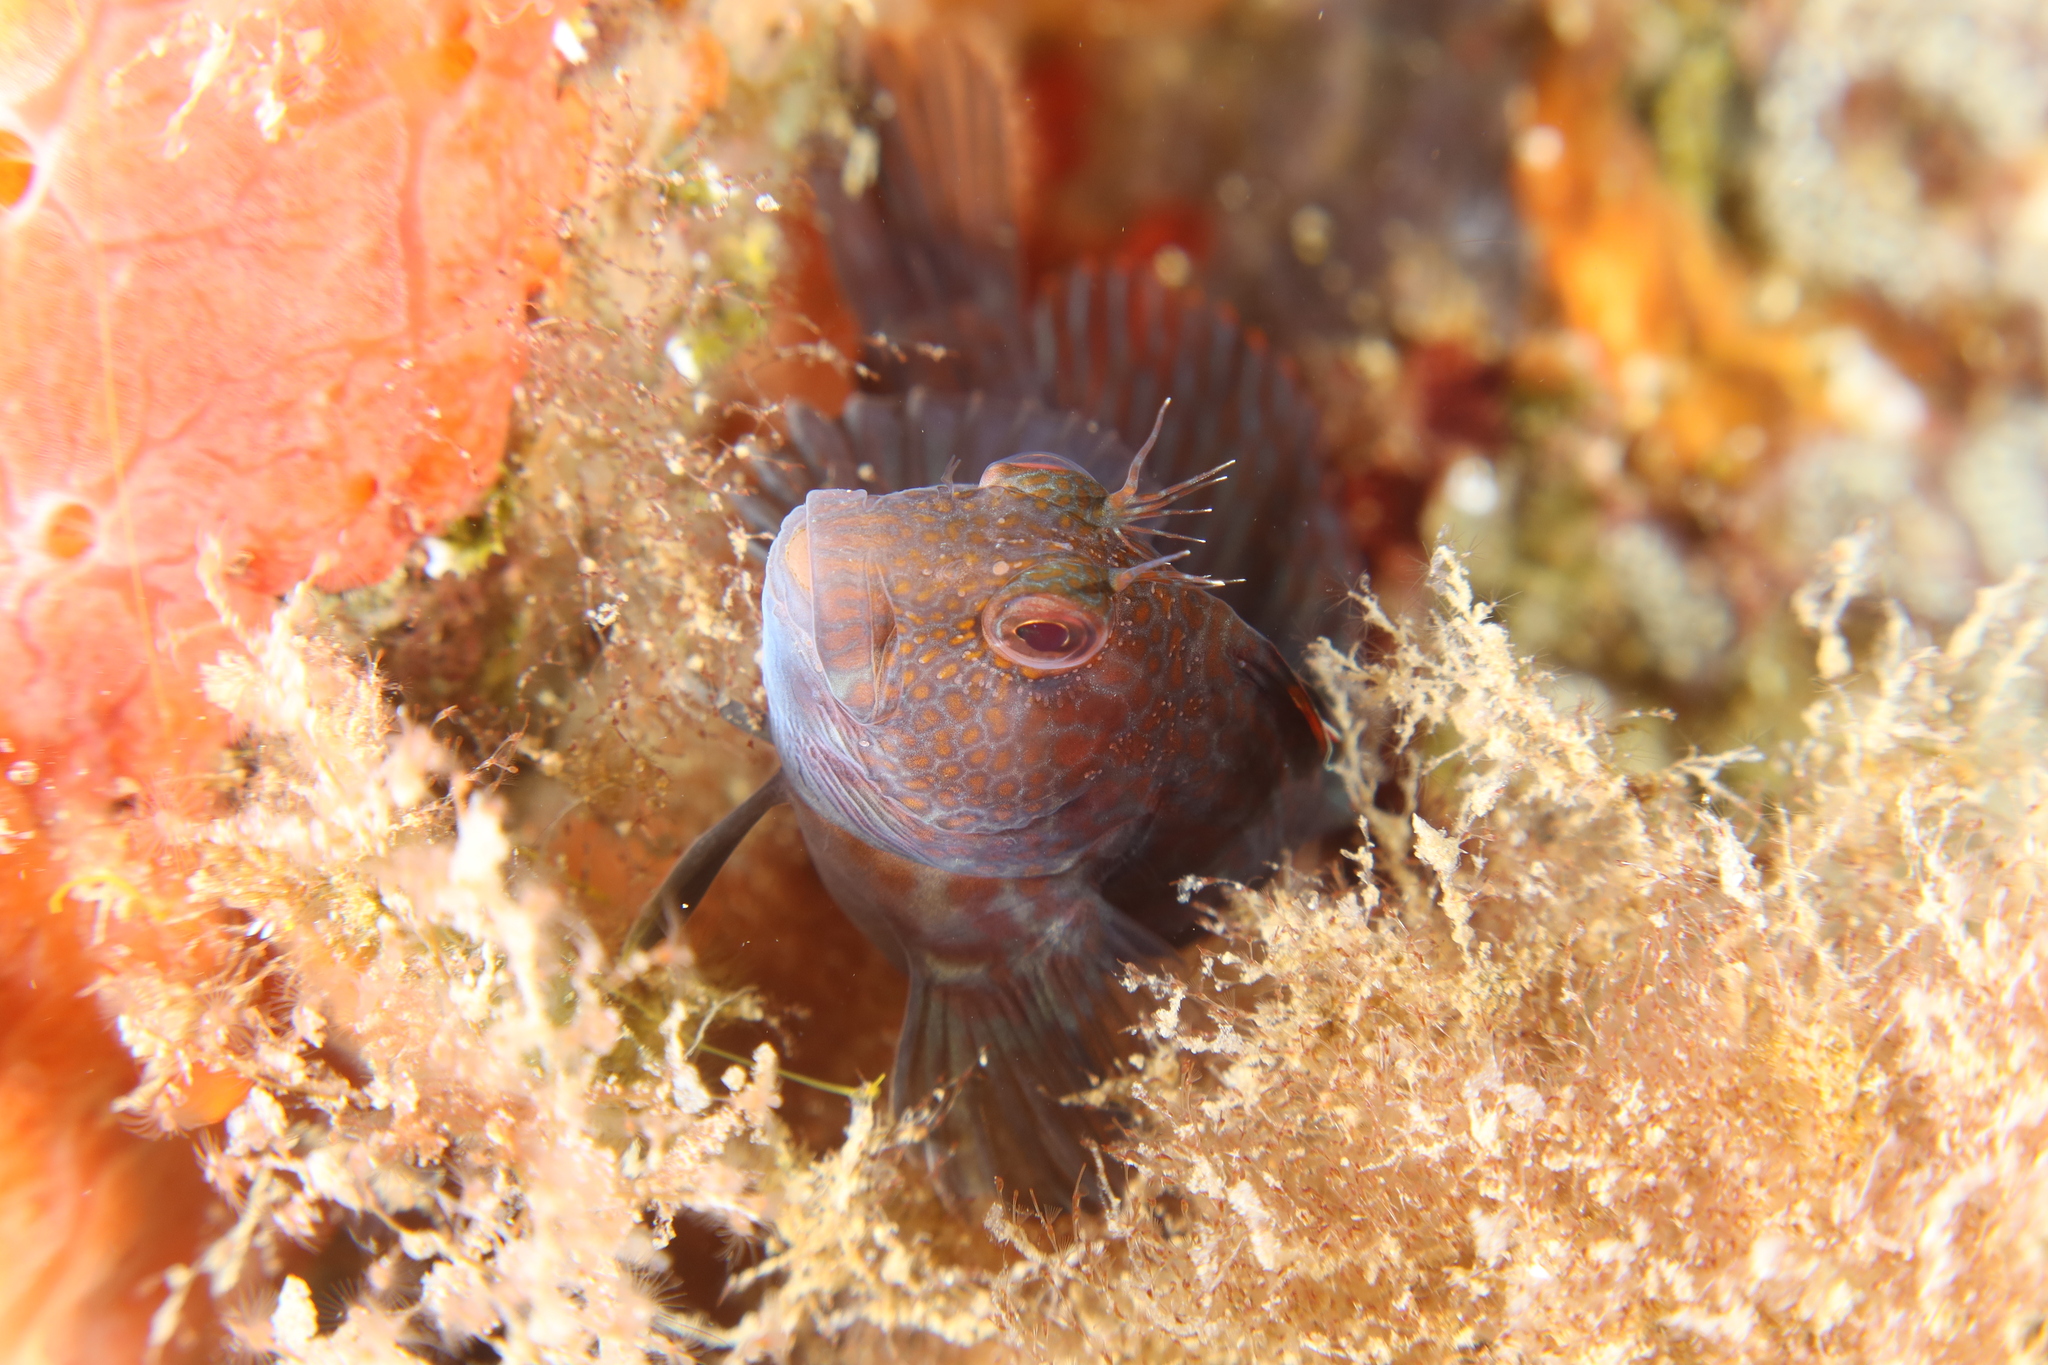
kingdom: Animalia
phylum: Chordata
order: Perciformes
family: Blenniidae
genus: Parablennius
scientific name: Parablennius pilicornis
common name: Ringneck blenny
